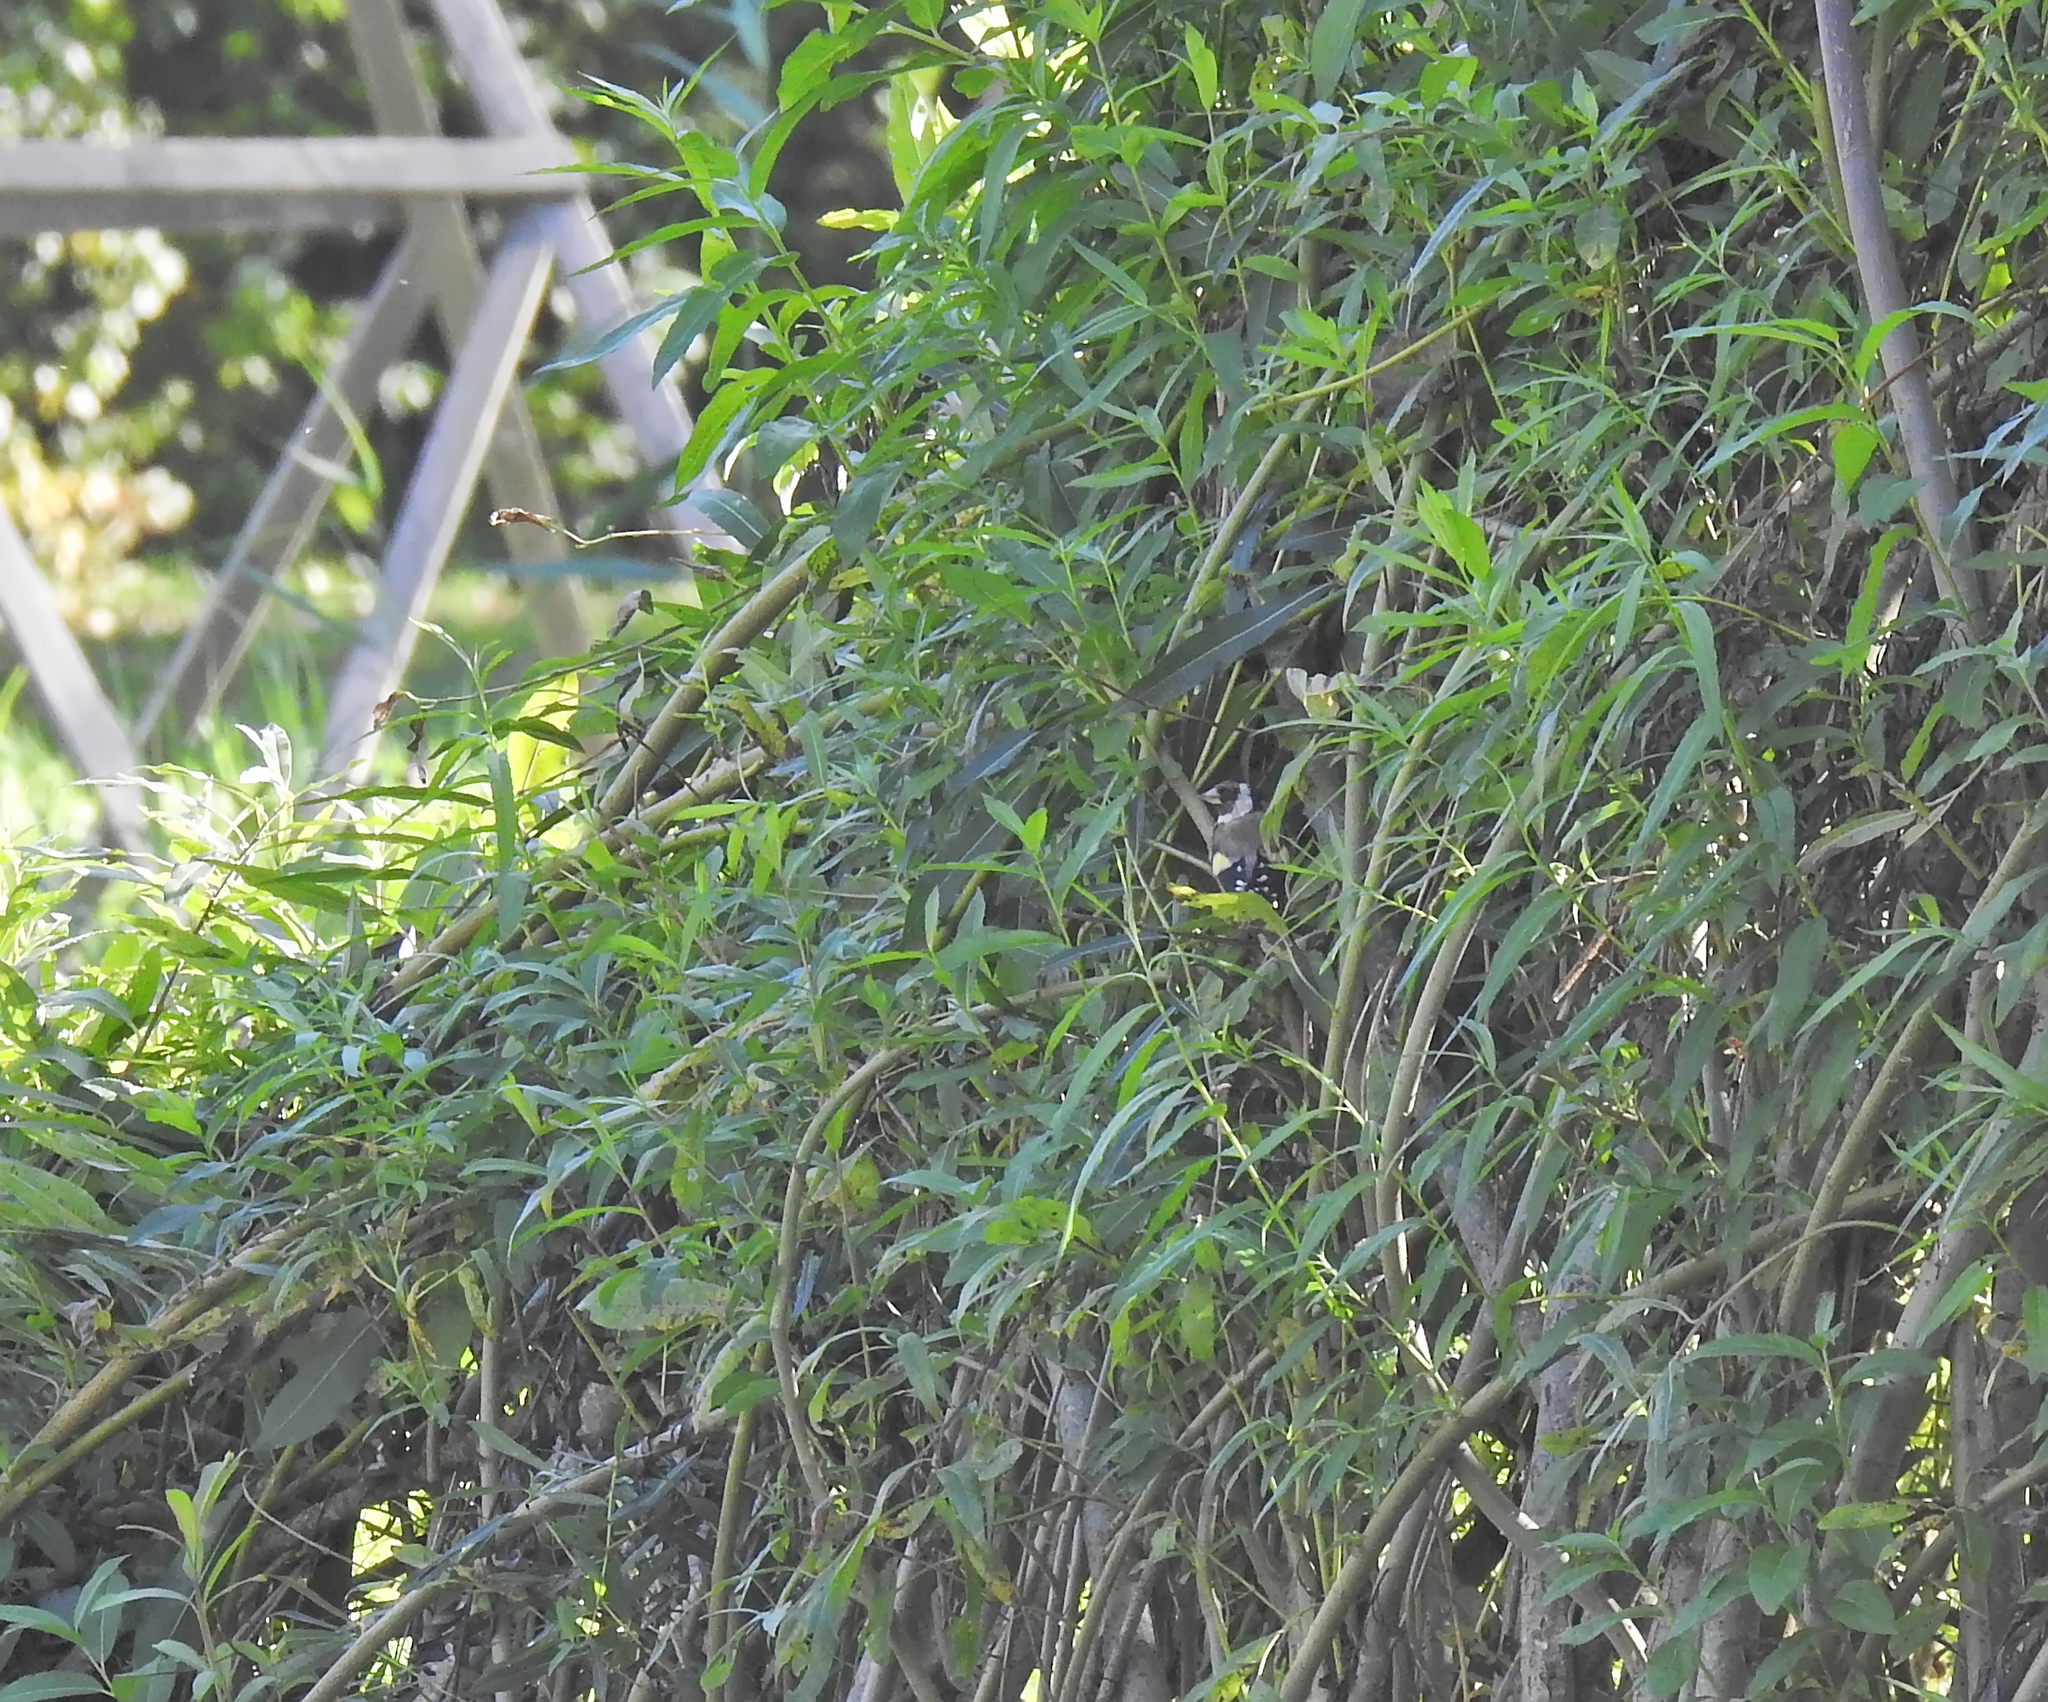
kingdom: Animalia
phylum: Chordata
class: Aves
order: Passeriformes
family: Fringillidae
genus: Carduelis
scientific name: Carduelis carduelis
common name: European goldfinch
